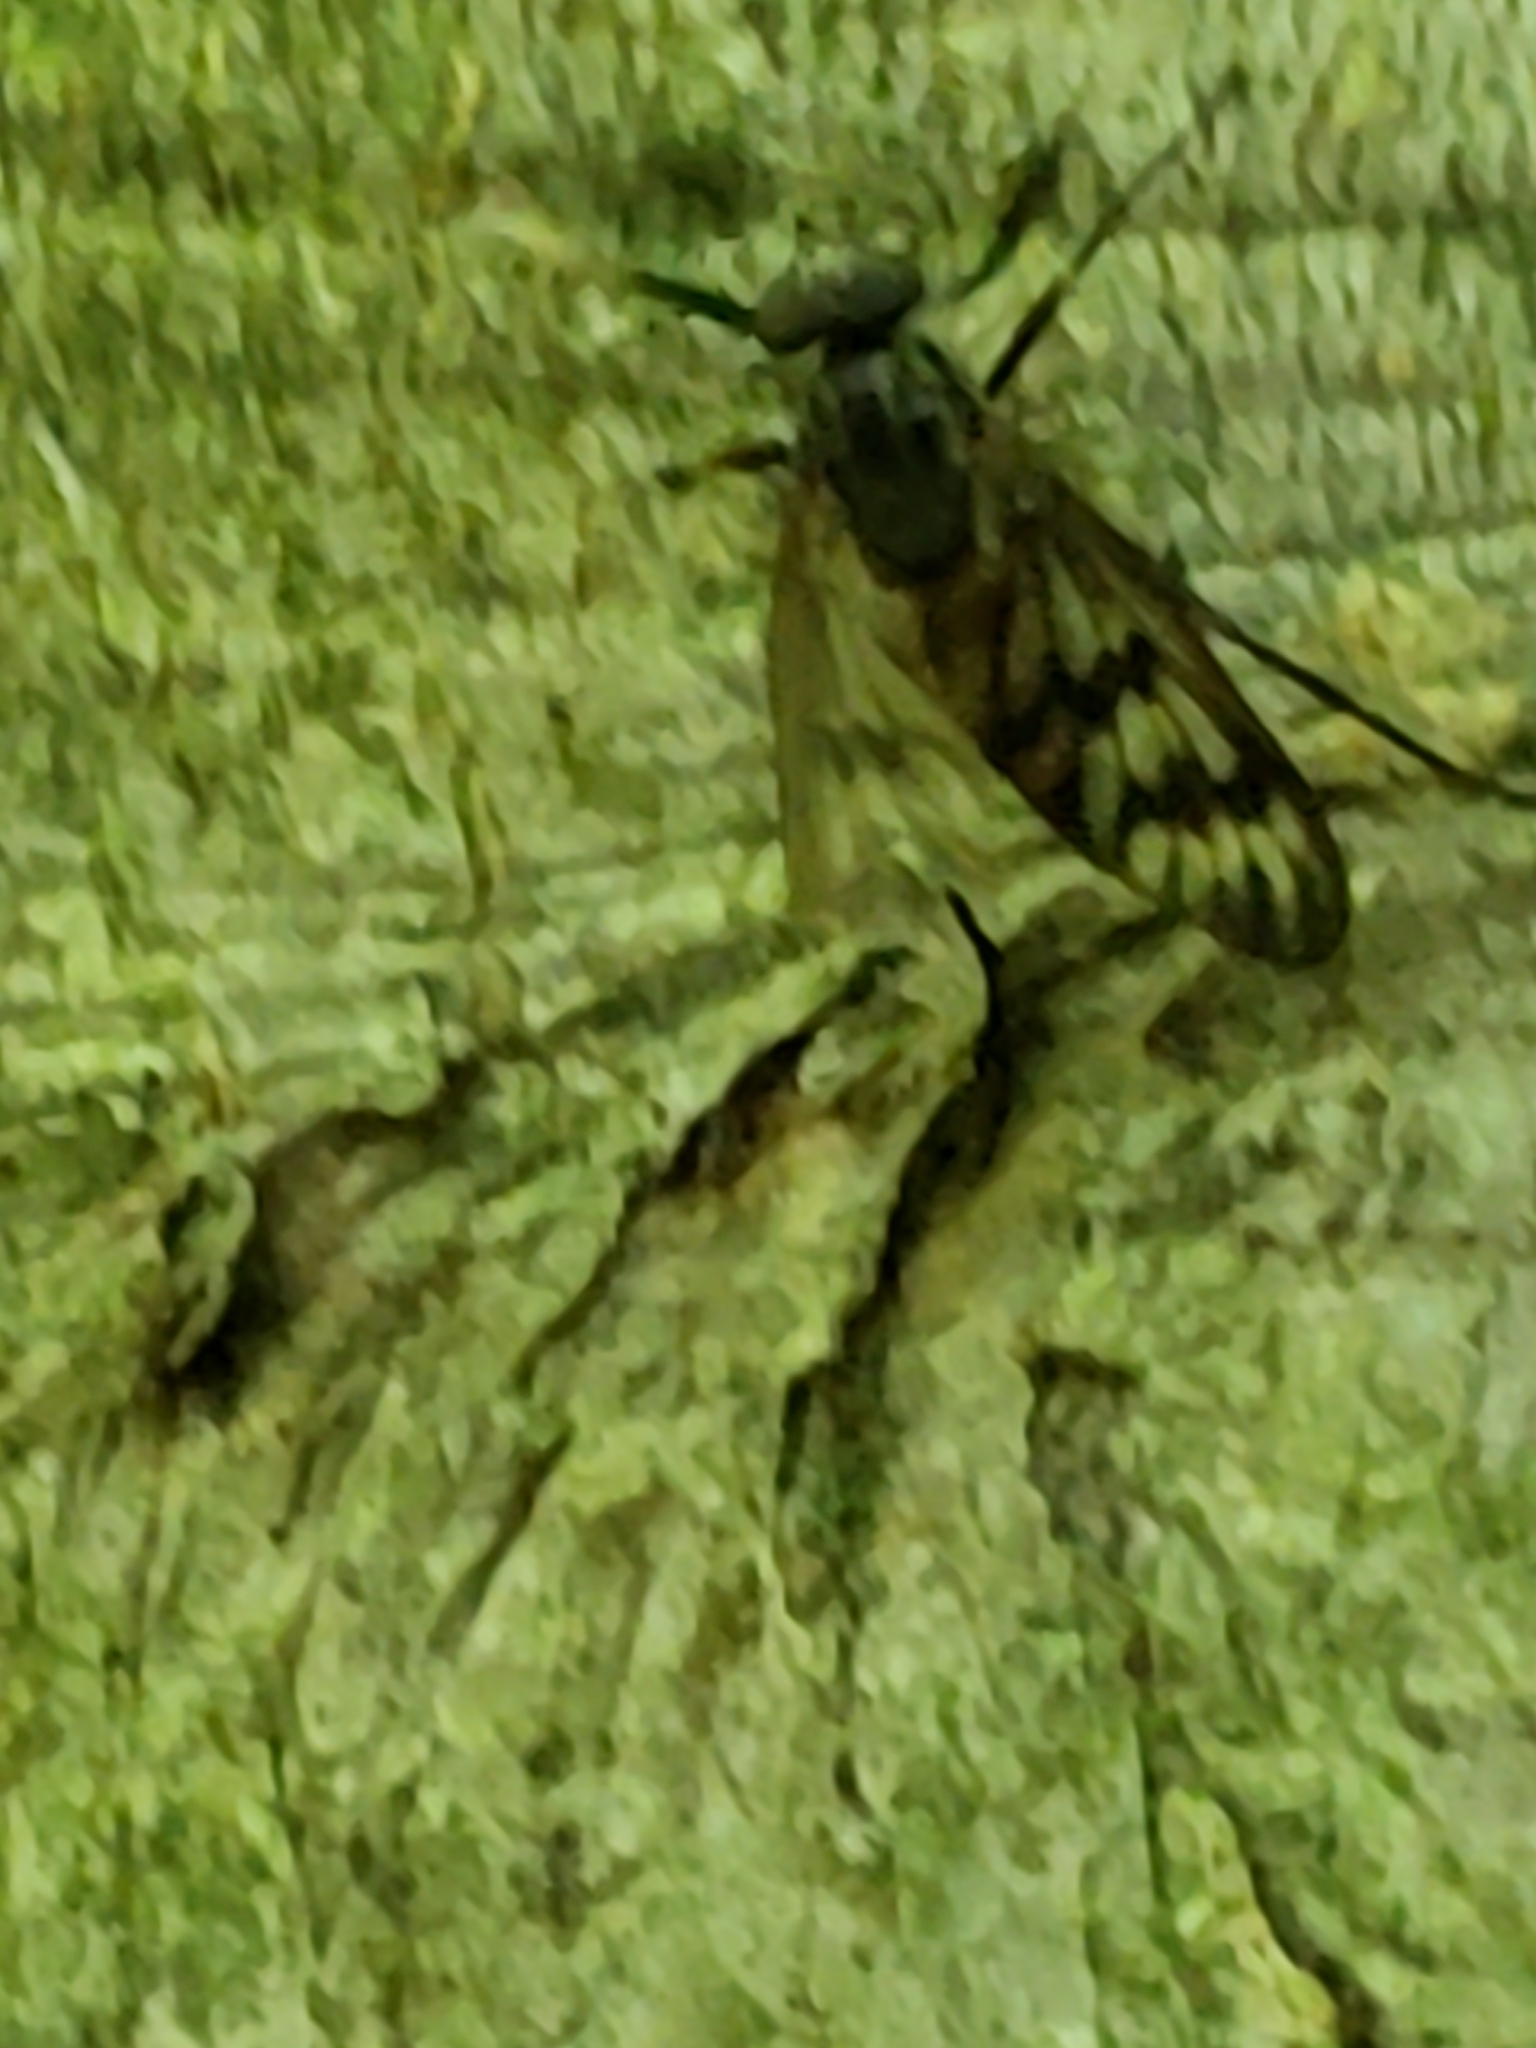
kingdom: Animalia
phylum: Arthropoda
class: Insecta
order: Diptera
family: Rhagionidae
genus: Rhagio
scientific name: Rhagio mystaceus
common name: Common snipe fly
